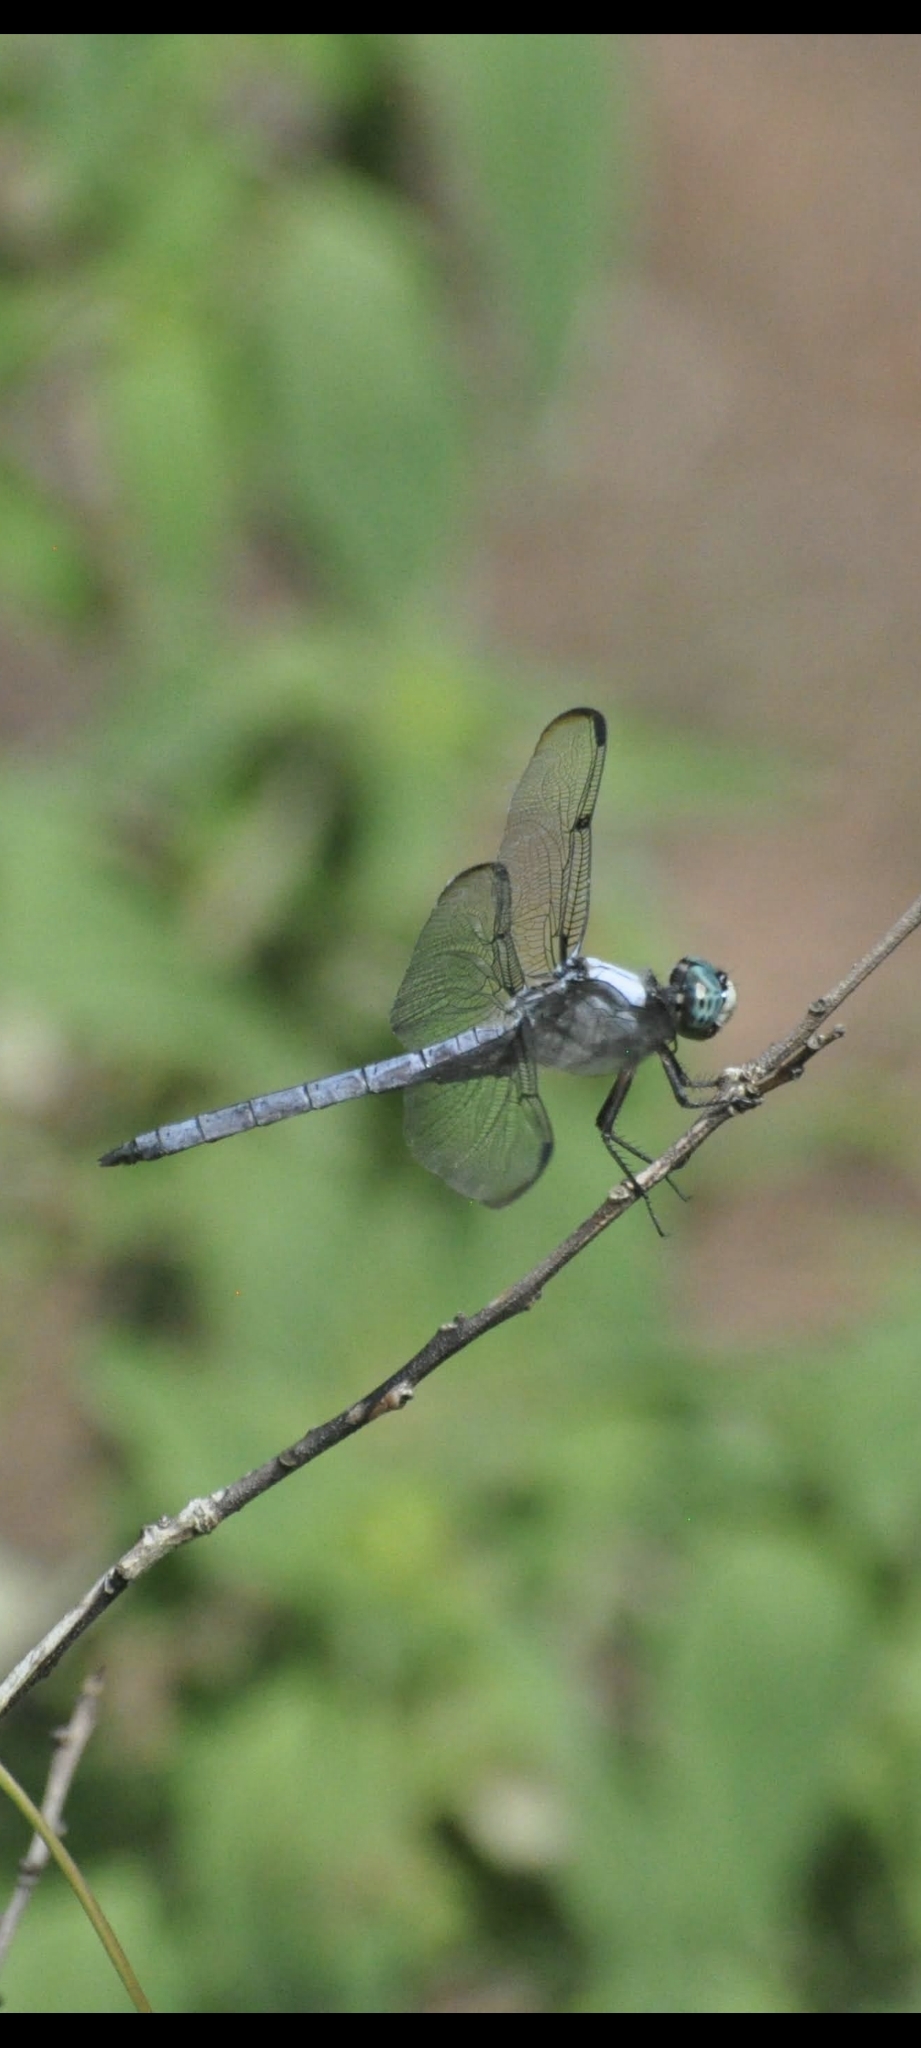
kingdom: Animalia
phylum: Arthropoda
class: Insecta
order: Odonata
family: Libellulidae
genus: Libellula
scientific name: Libellula vibrans
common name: Great blue skimmer
